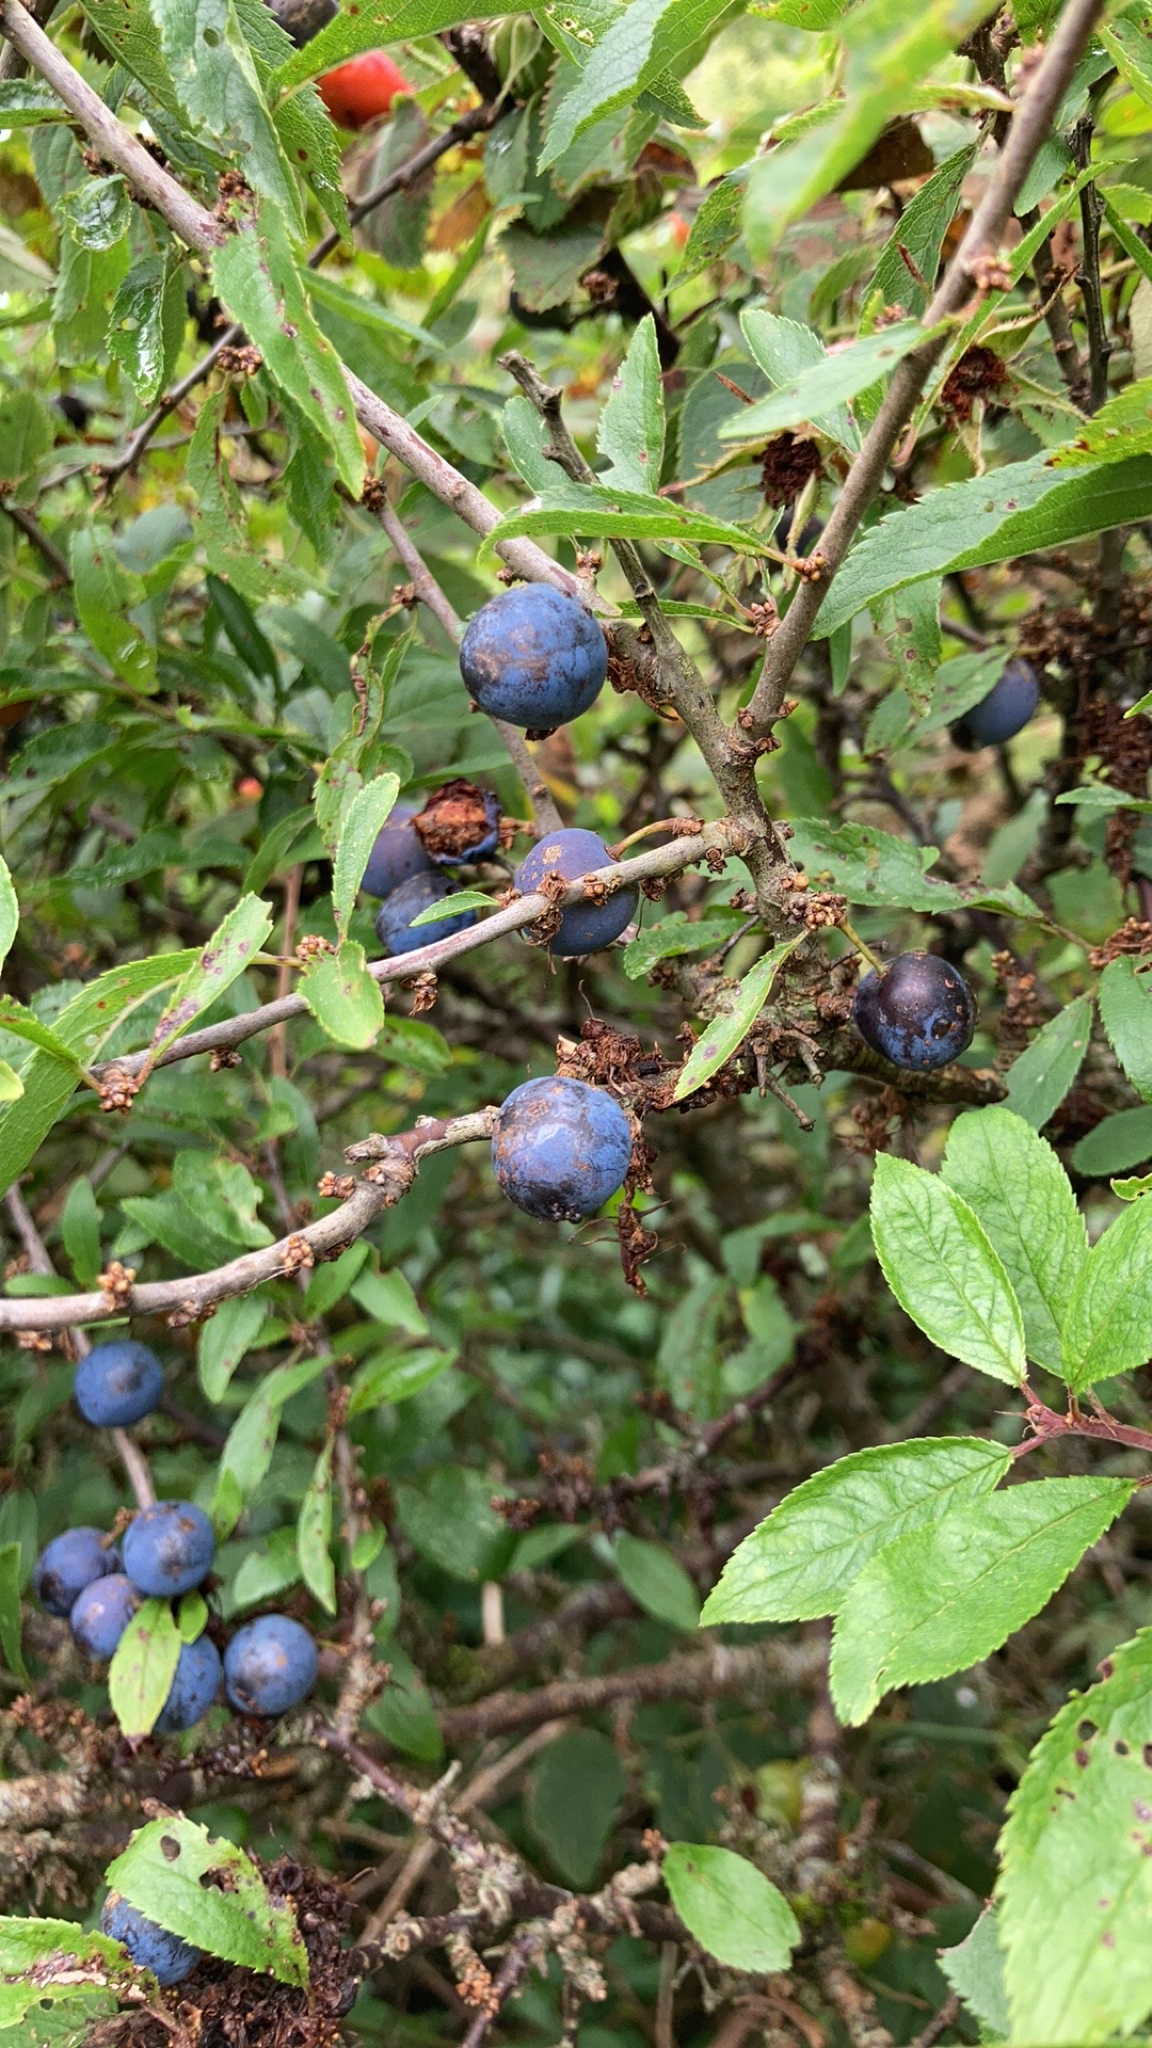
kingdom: Plantae
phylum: Tracheophyta
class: Magnoliopsida
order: Rosales
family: Rosaceae
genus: Prunus
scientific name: Prunus spinosa
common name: Blackthorn
